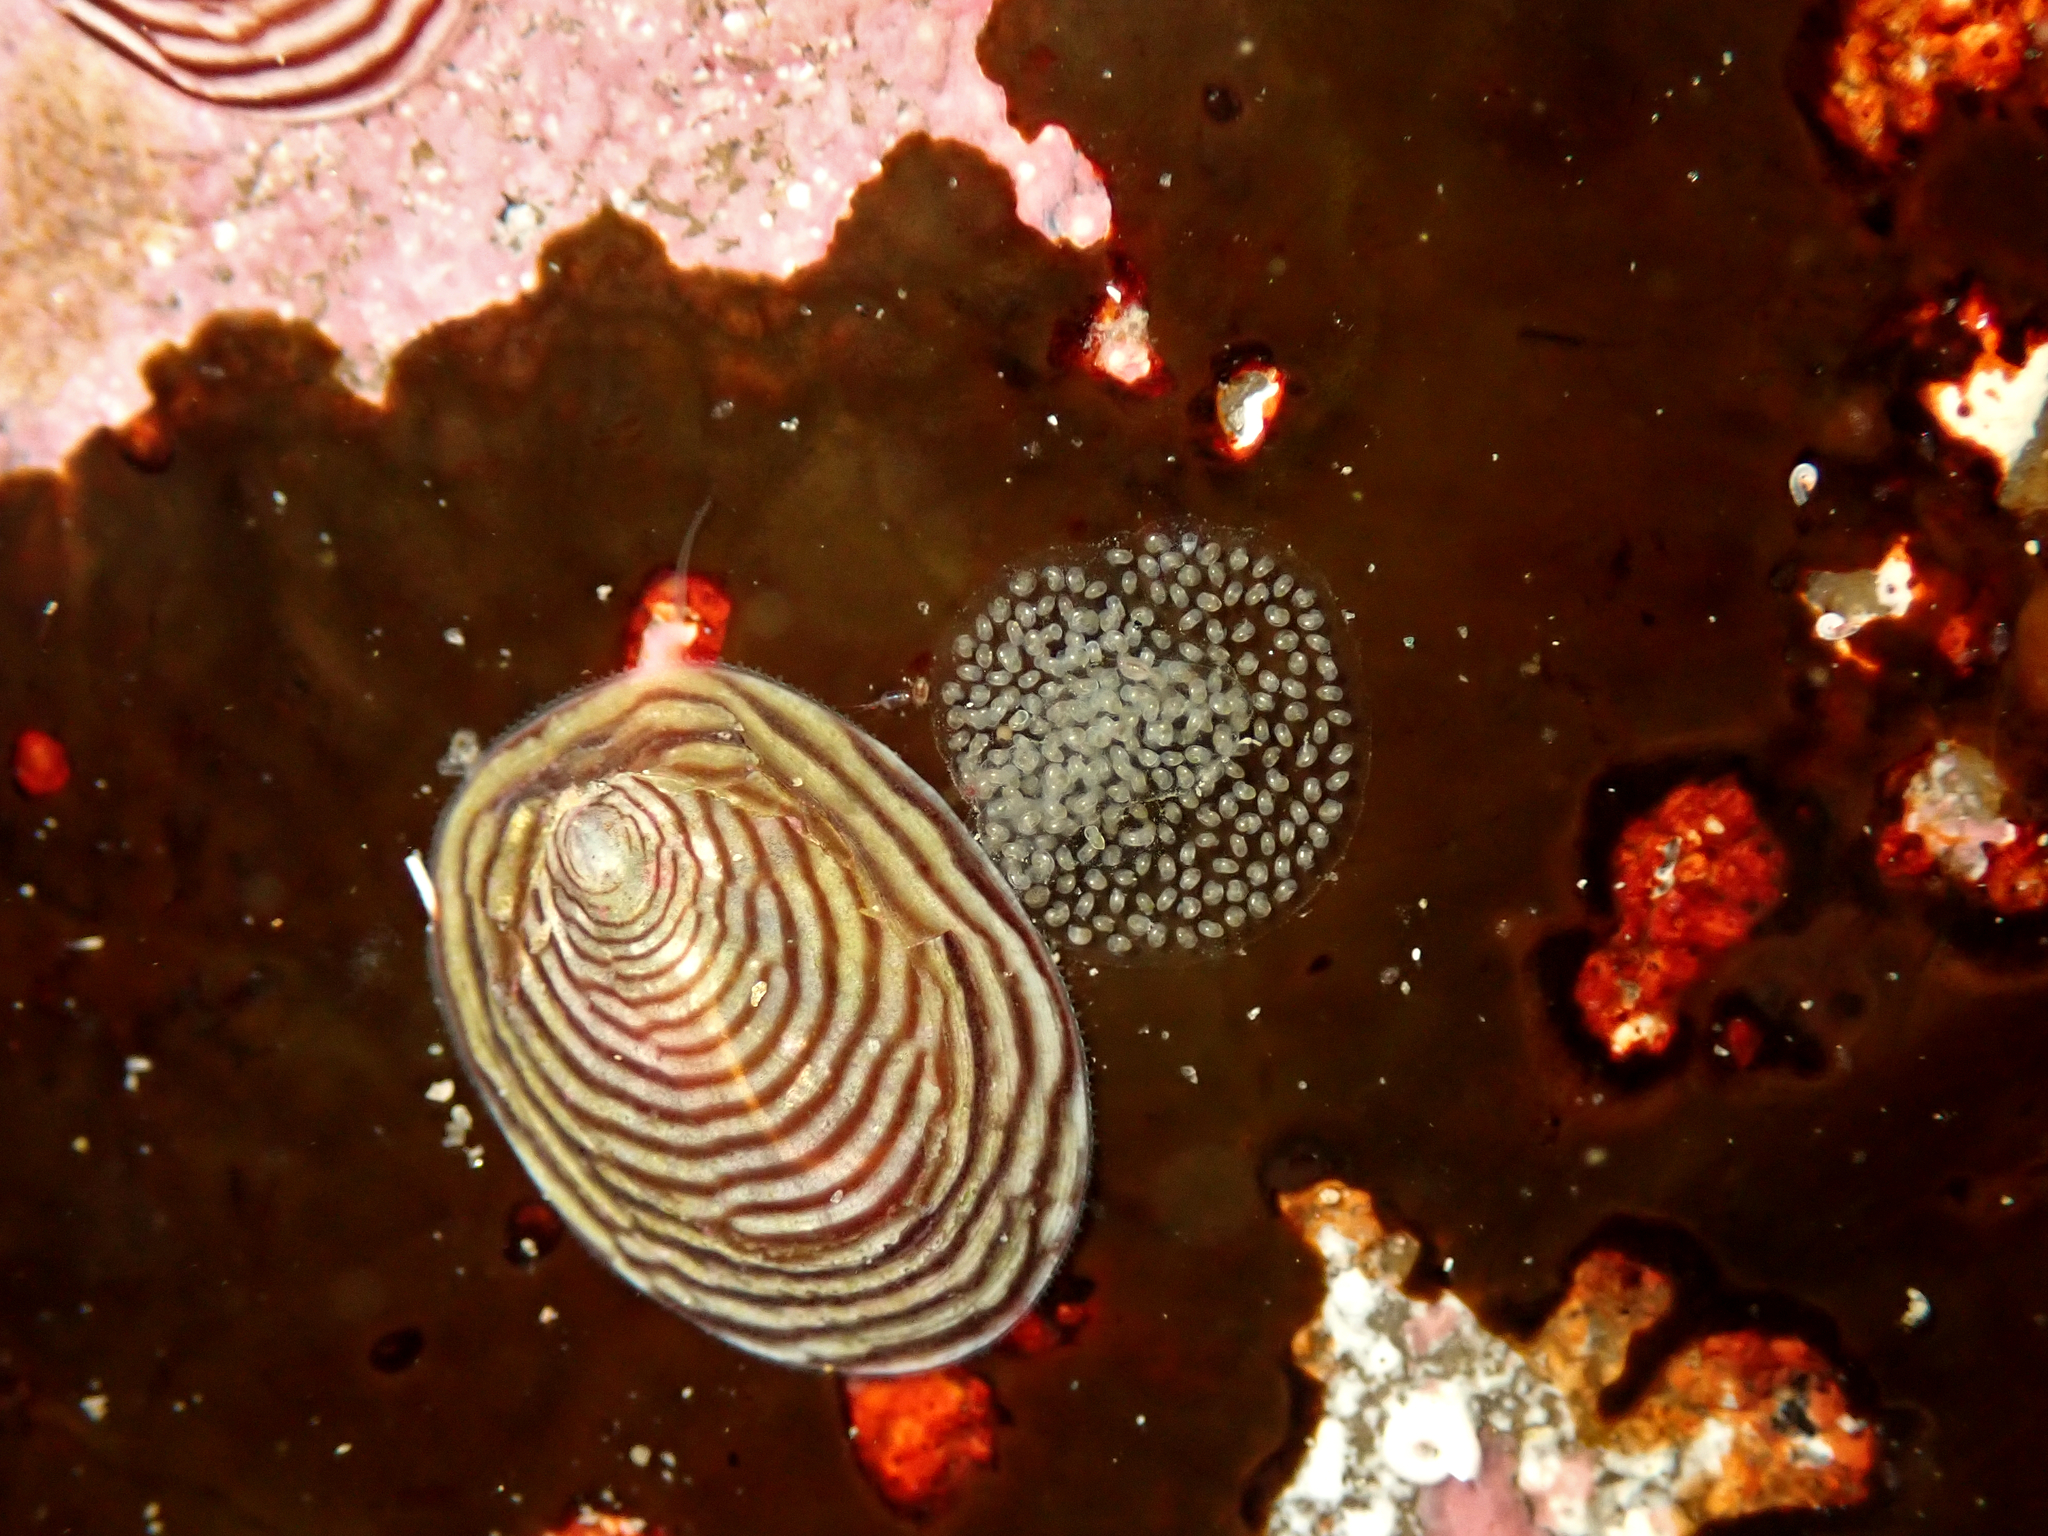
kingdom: Animalia
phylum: Mollusca
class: Gastropoda
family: Lottiidae
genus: Atalacmea
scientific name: Atalacmea multilinea
